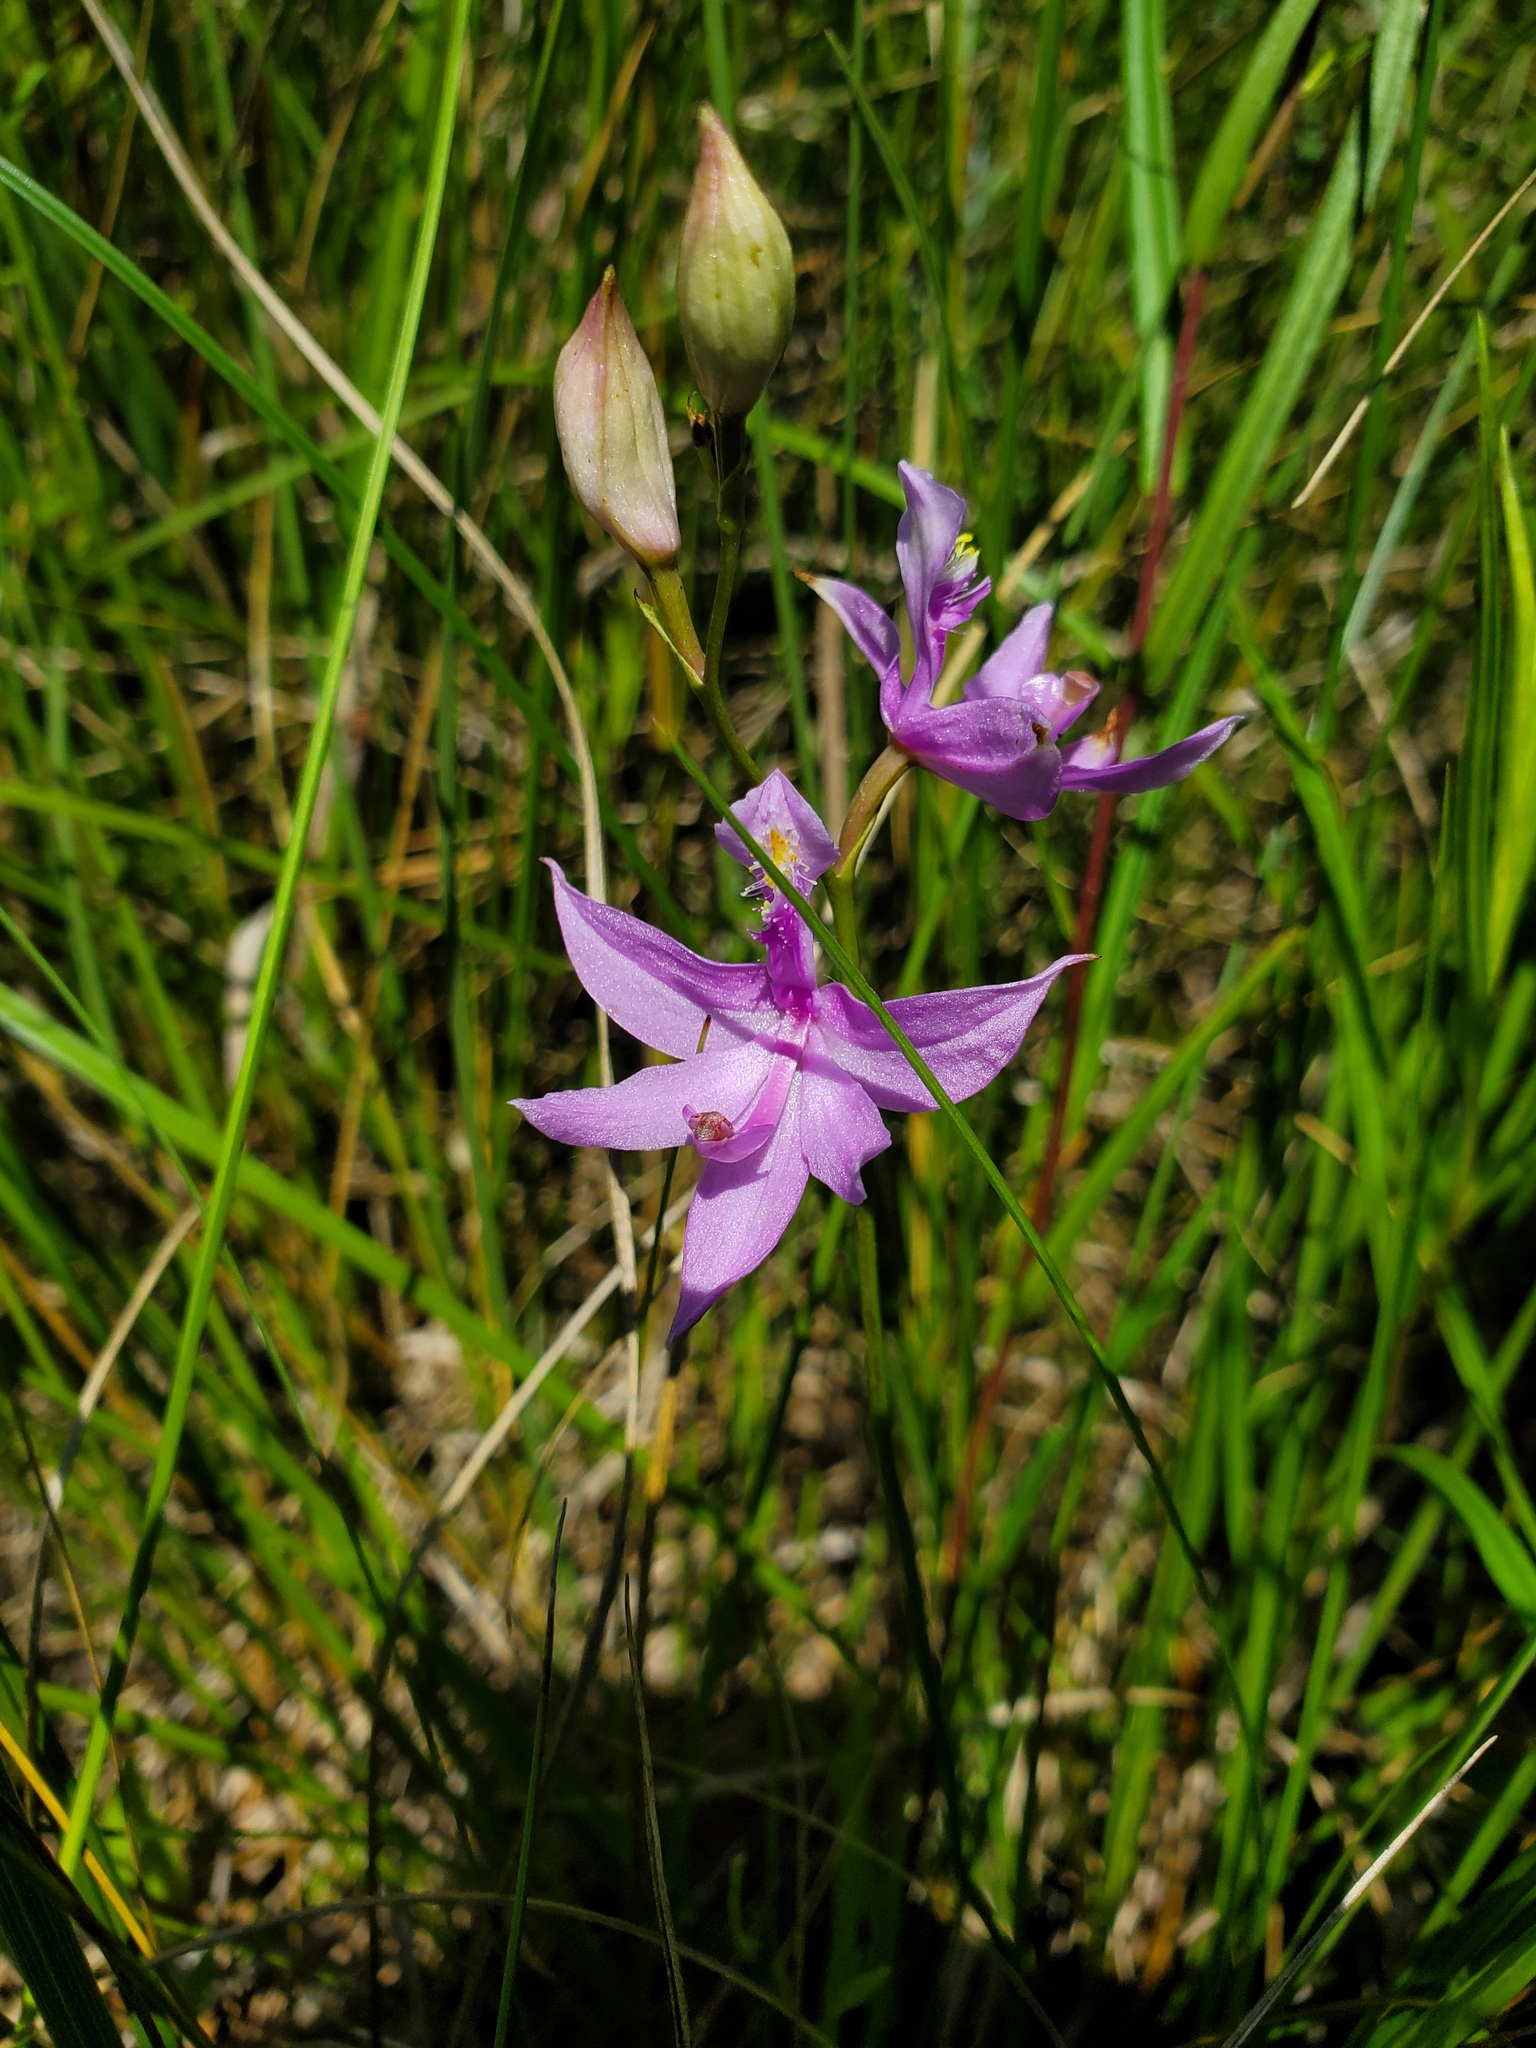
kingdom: Plantae
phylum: Tracheophyta
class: Liliopsida
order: Asparagales
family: Orchidaceae
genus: Calopogon
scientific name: Calopogon tuberosus
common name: Grass-pink
